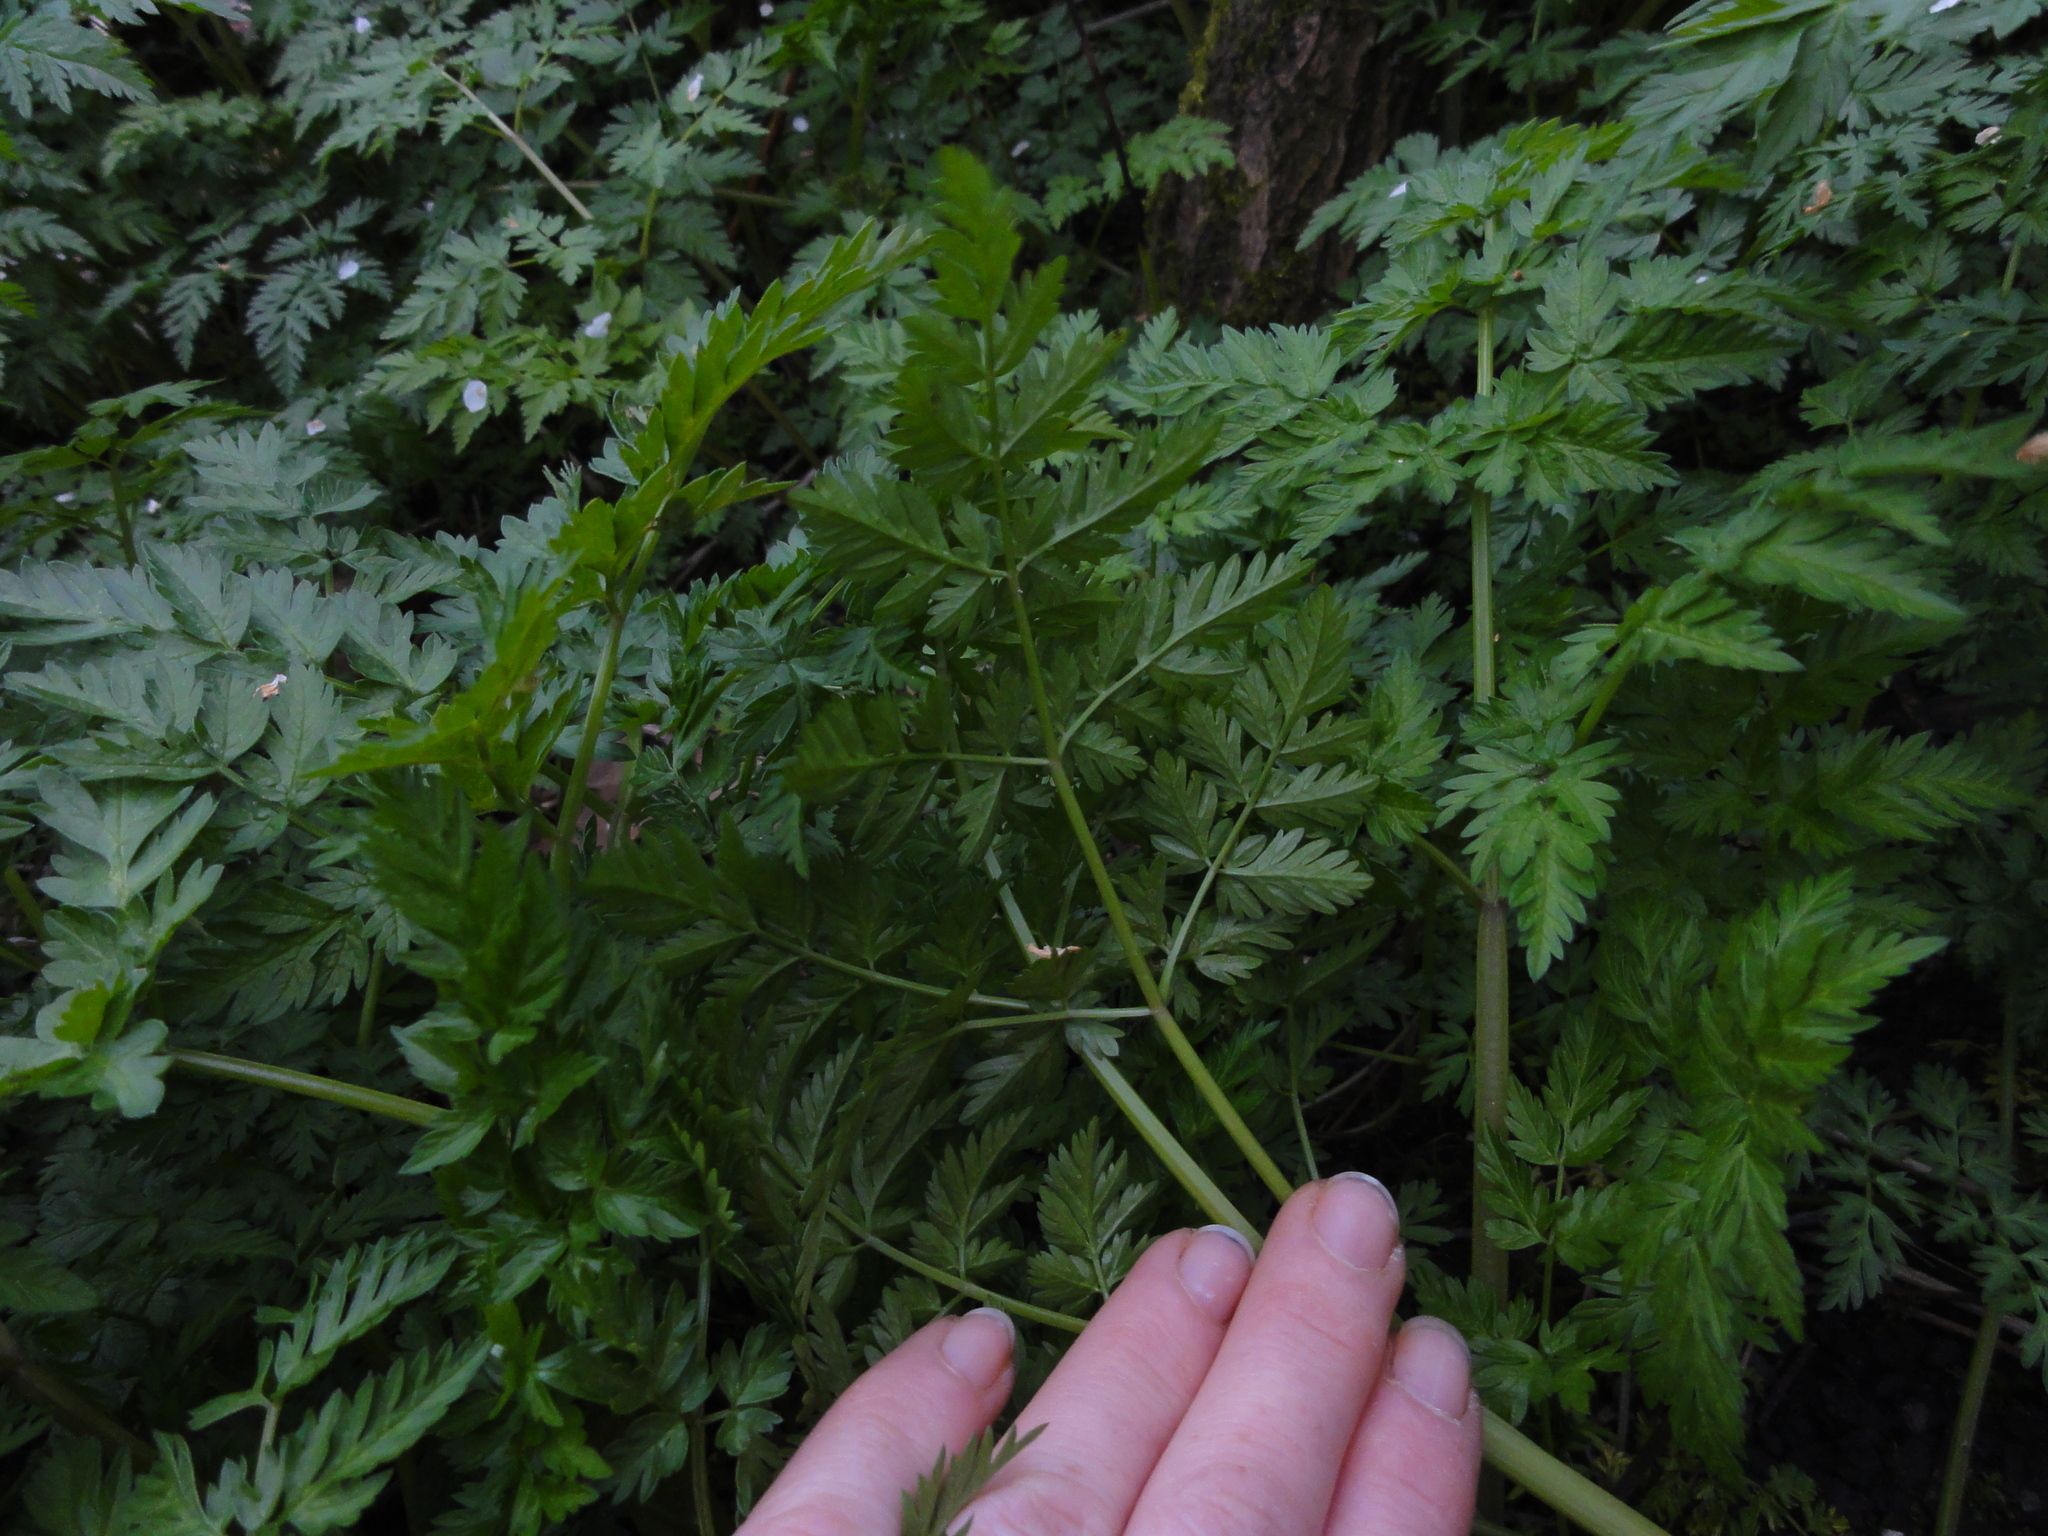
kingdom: Plantae
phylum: Tracheophyta
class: Magnoliopsida
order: Apiales
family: Apiaceae
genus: Anthriscus
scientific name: Anthriscus sylvestris
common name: Cow parsley
